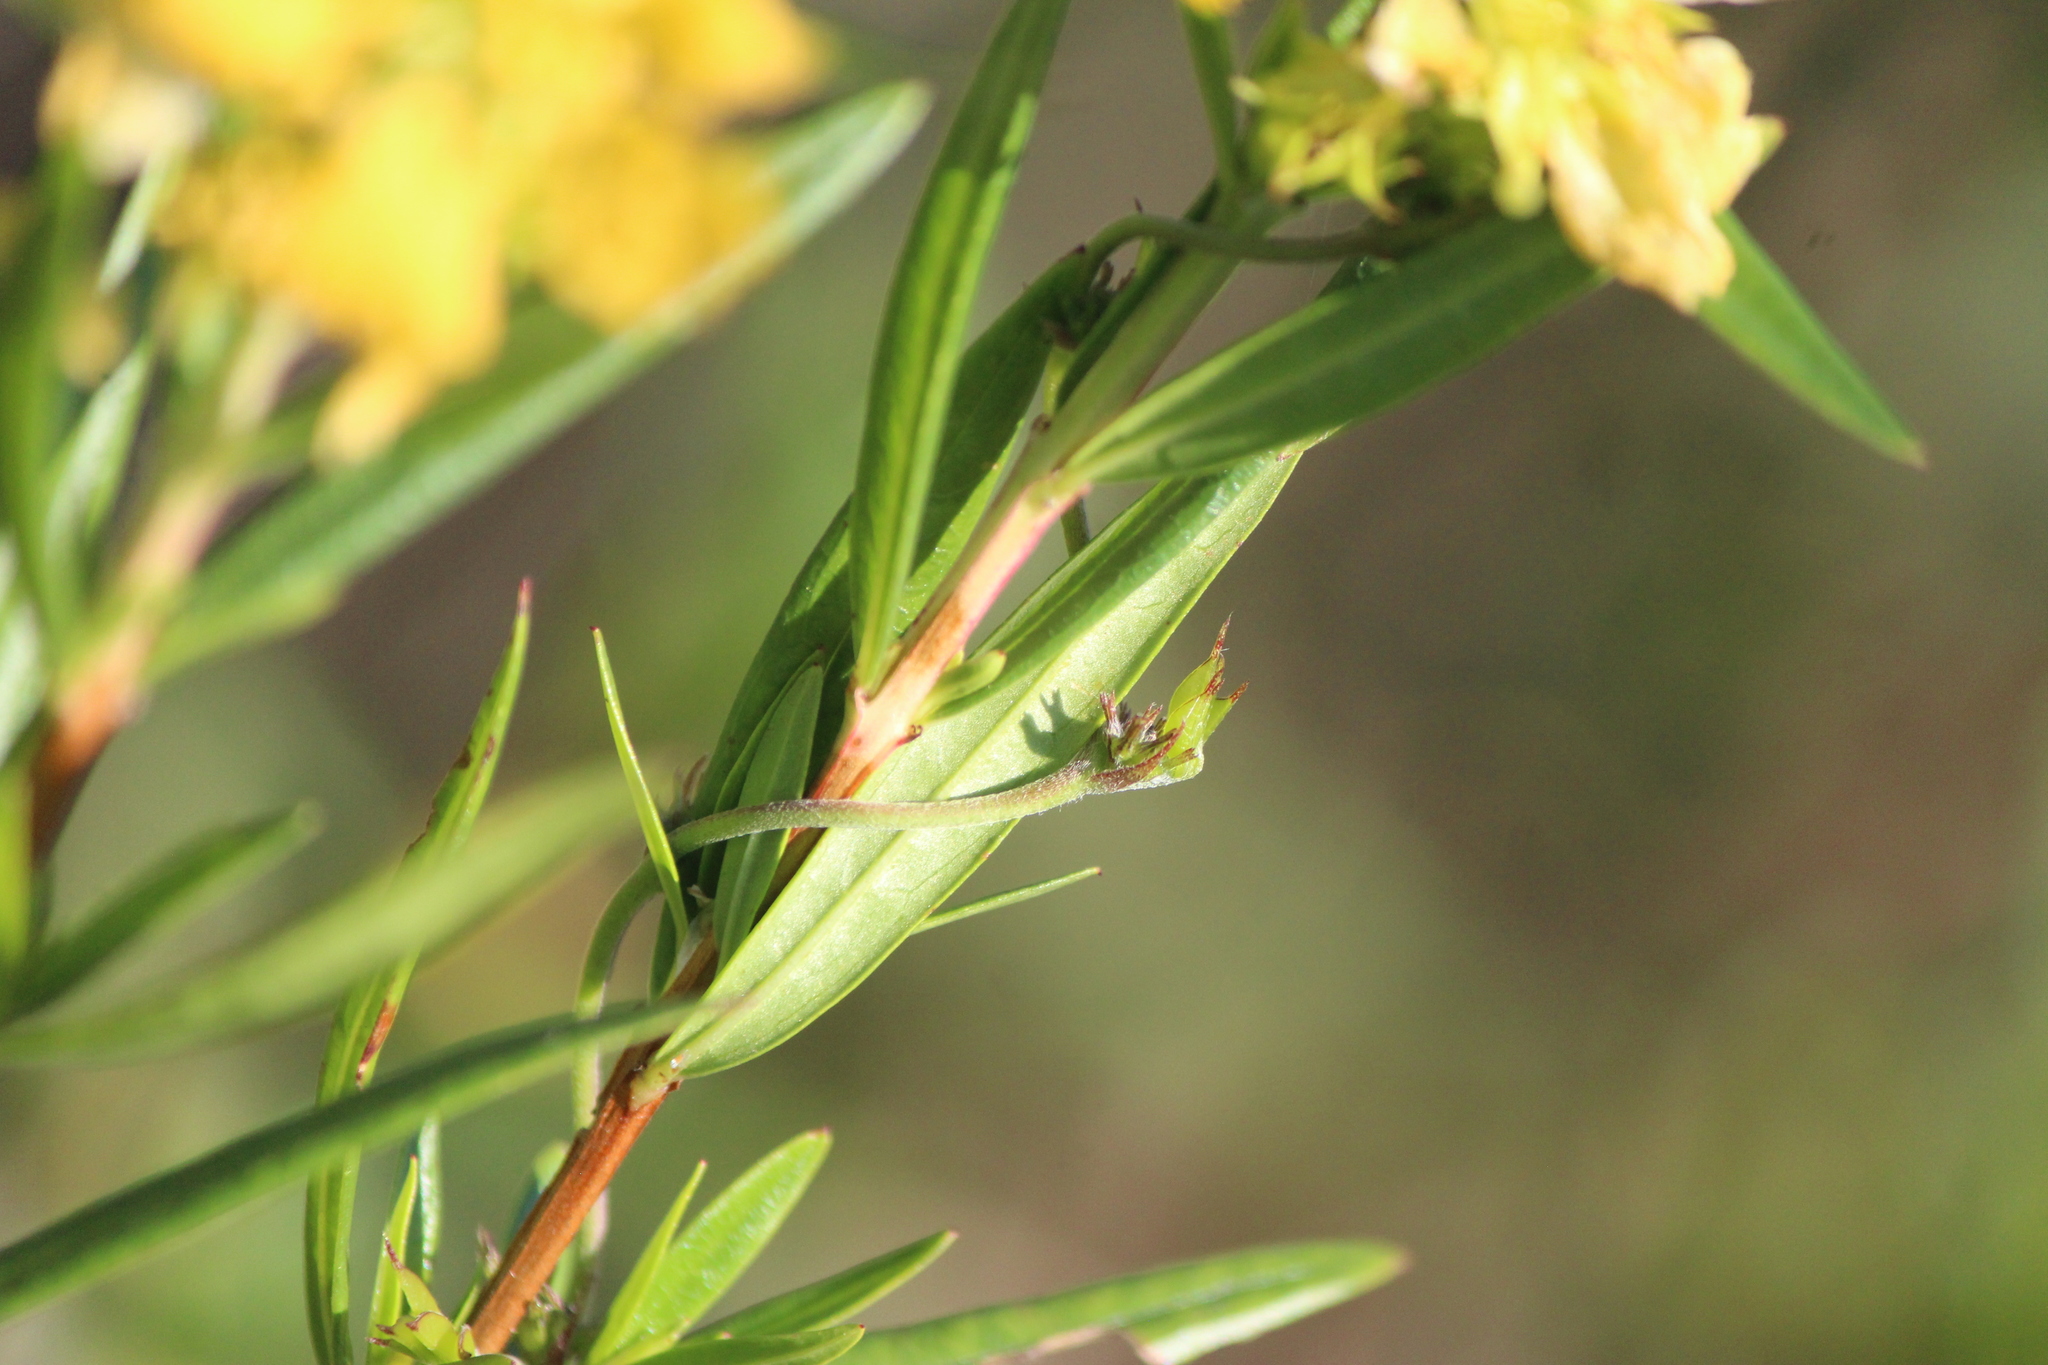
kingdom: Plantae
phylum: Tracheophyta
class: Magnoliopsida
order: Myrtales
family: Lythraceae
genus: Heimia
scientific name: Heimia salicifolia
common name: Willow-leaf heimia
